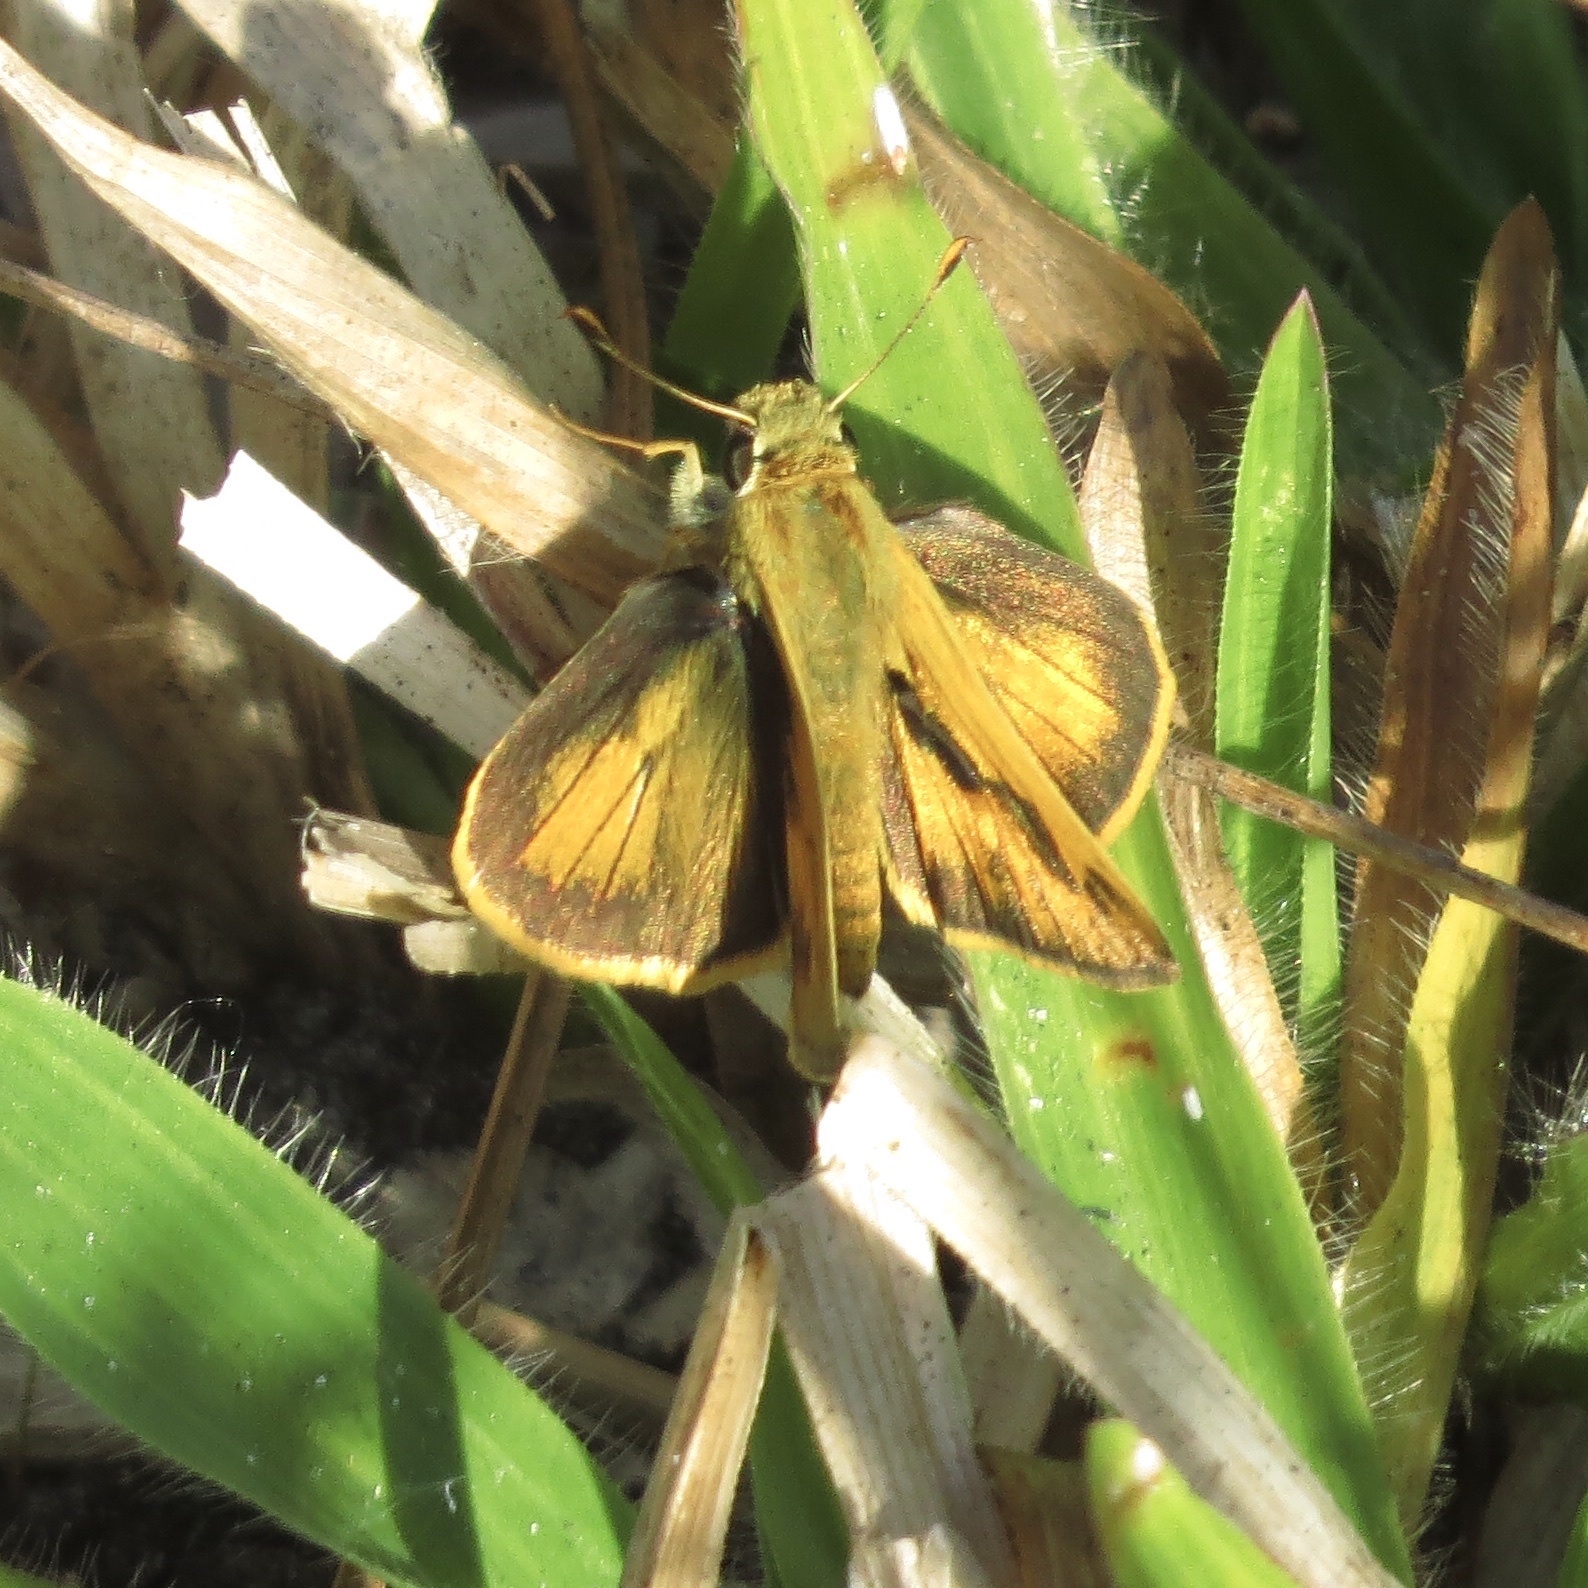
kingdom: Animalia
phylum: Arthropoda
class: Insecta
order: Lepidoptera
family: Hesperiidae
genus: Polites
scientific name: Polites vibex
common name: Whirlabout
